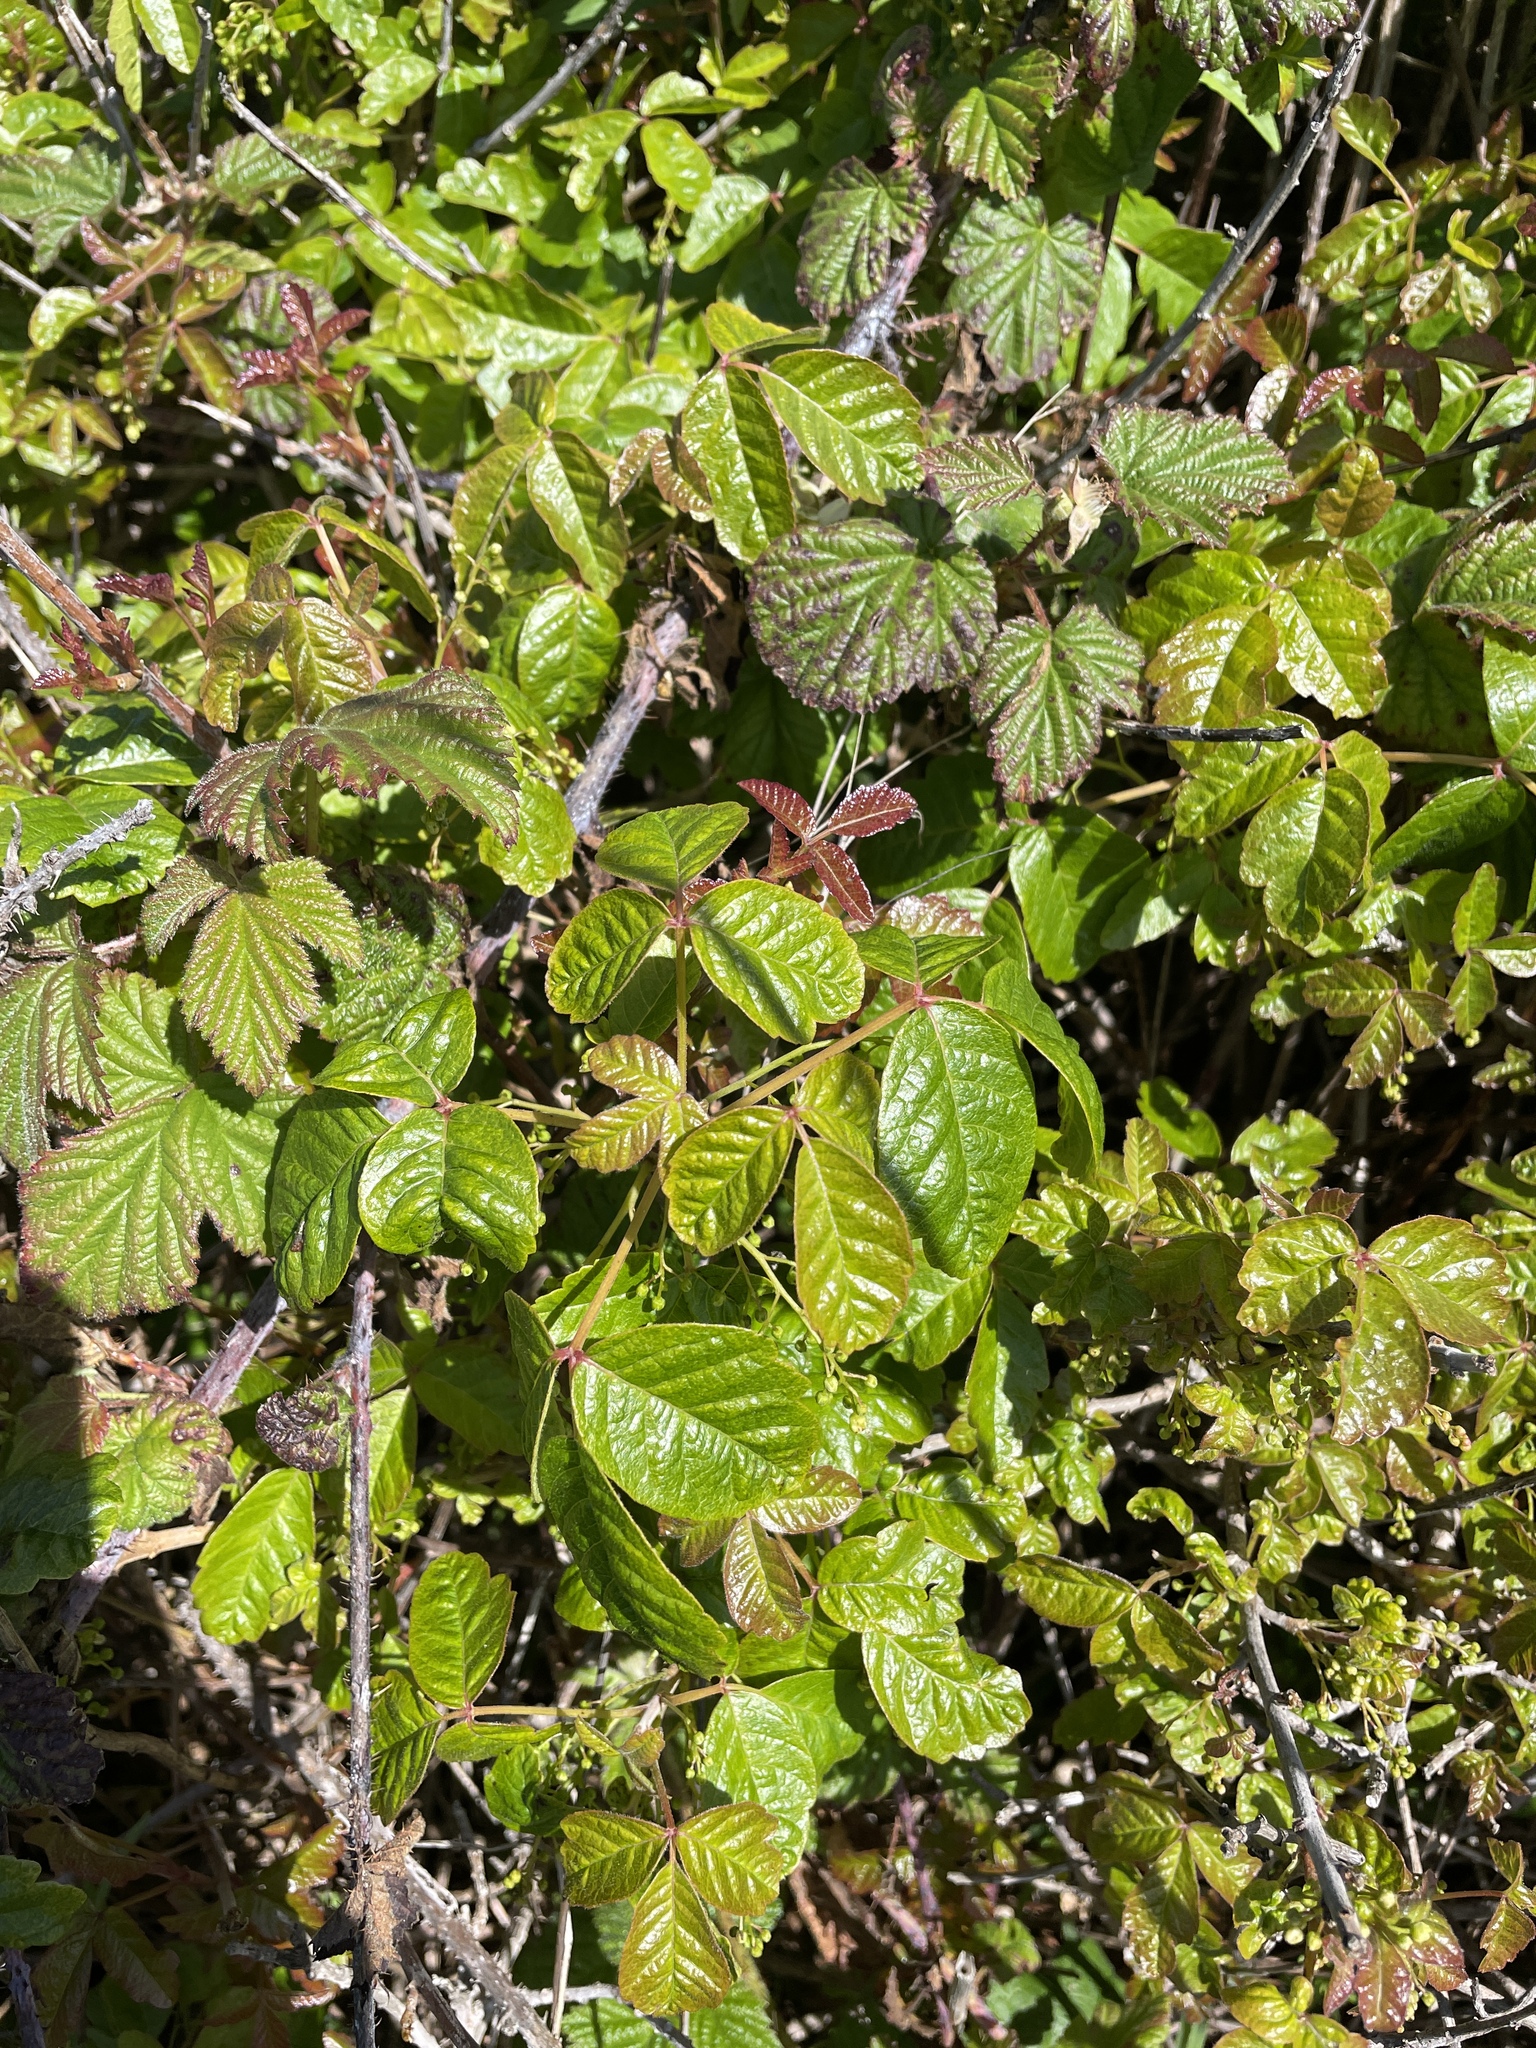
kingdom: Plantae
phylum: Tracheophyta
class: Magnoliopsida
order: Sapindales
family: Anacardiaceae
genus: Toxicodendron
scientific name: Toxicodendron diversilobum
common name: Pacific poison-oak
